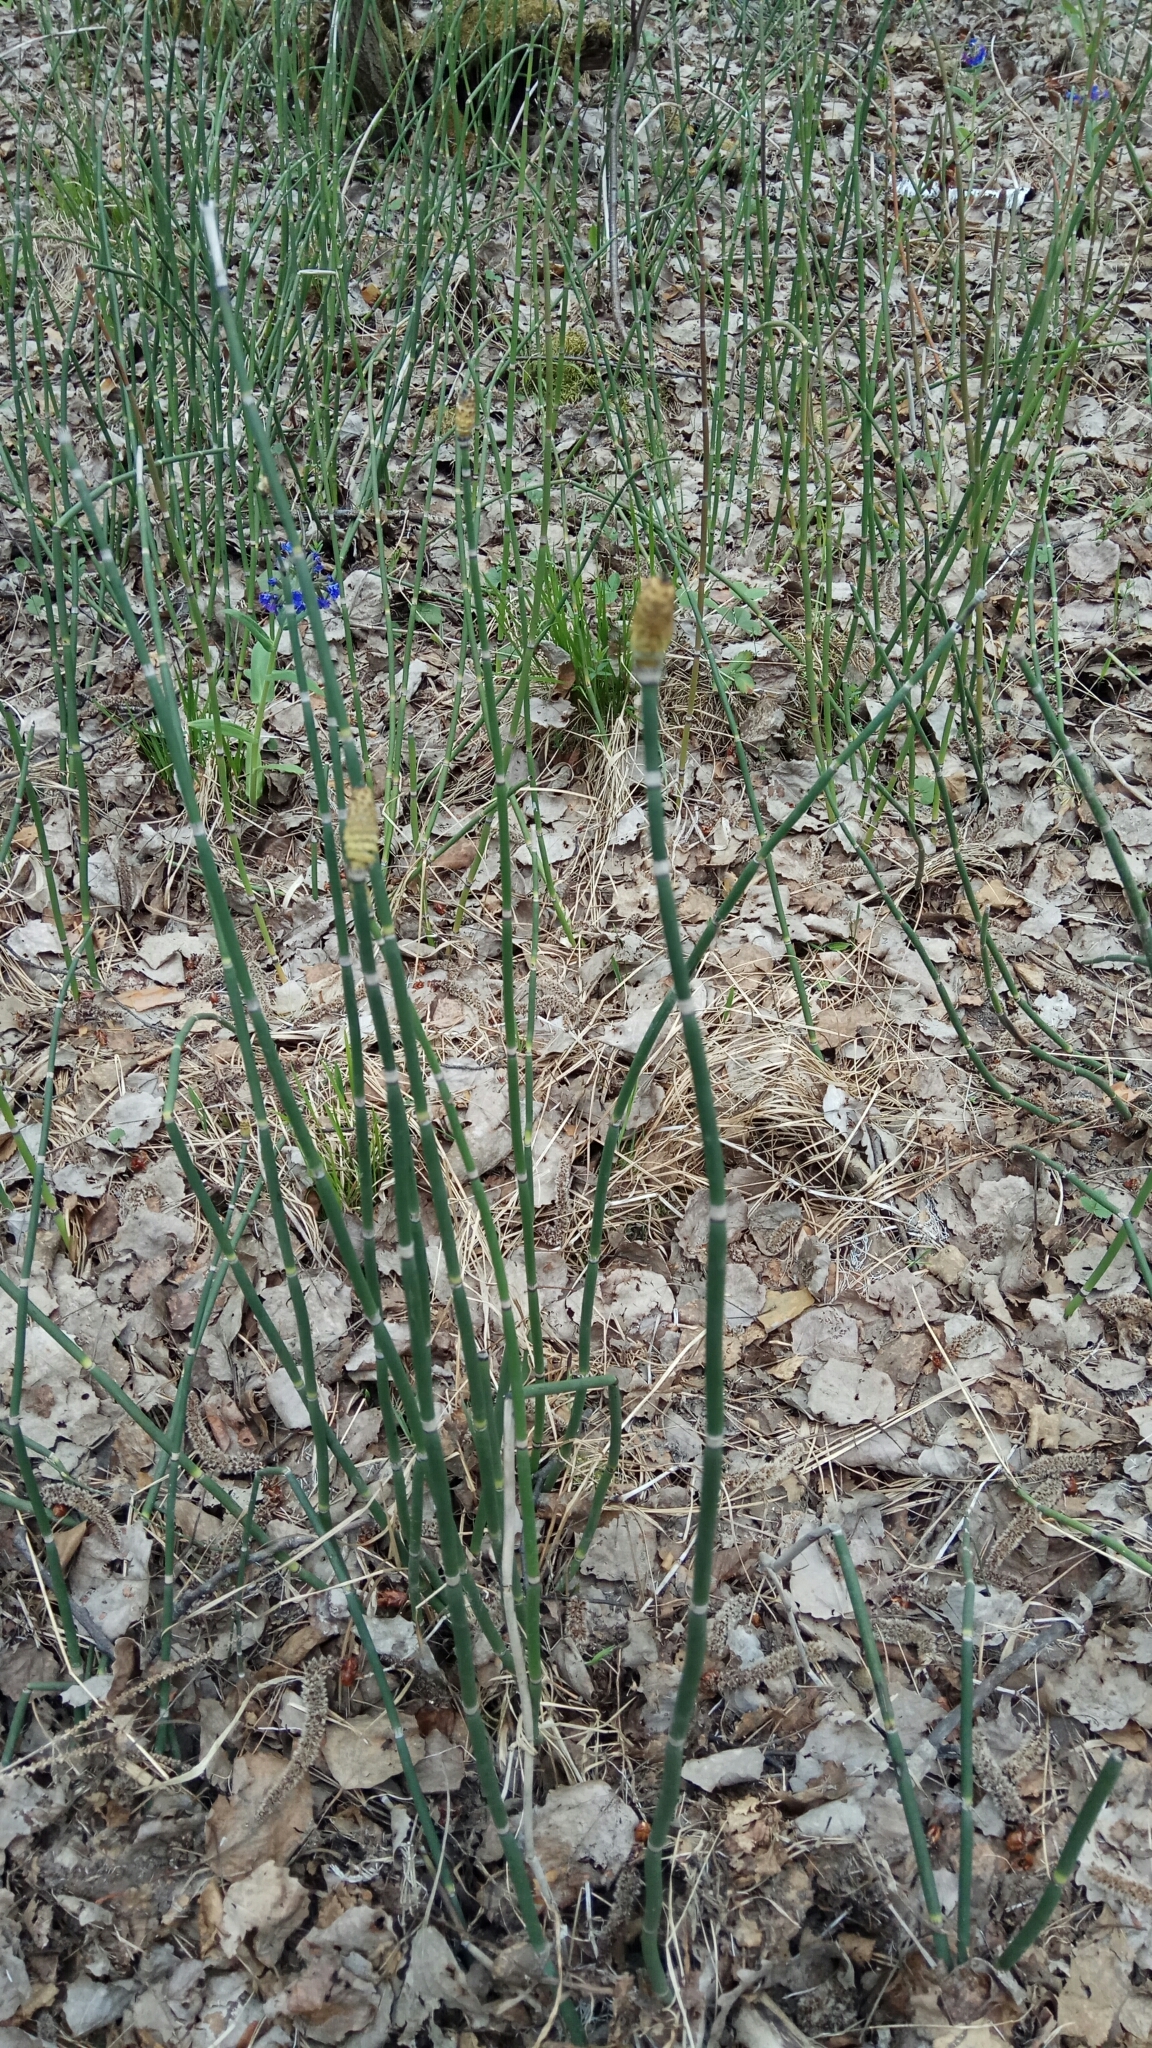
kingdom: Plantae
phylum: Tracheophyta
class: Polypodiopsida
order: Equisetales
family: Equisetaceae
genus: Equisetum
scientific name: Equisetum hyemale
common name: Rough horsetail
